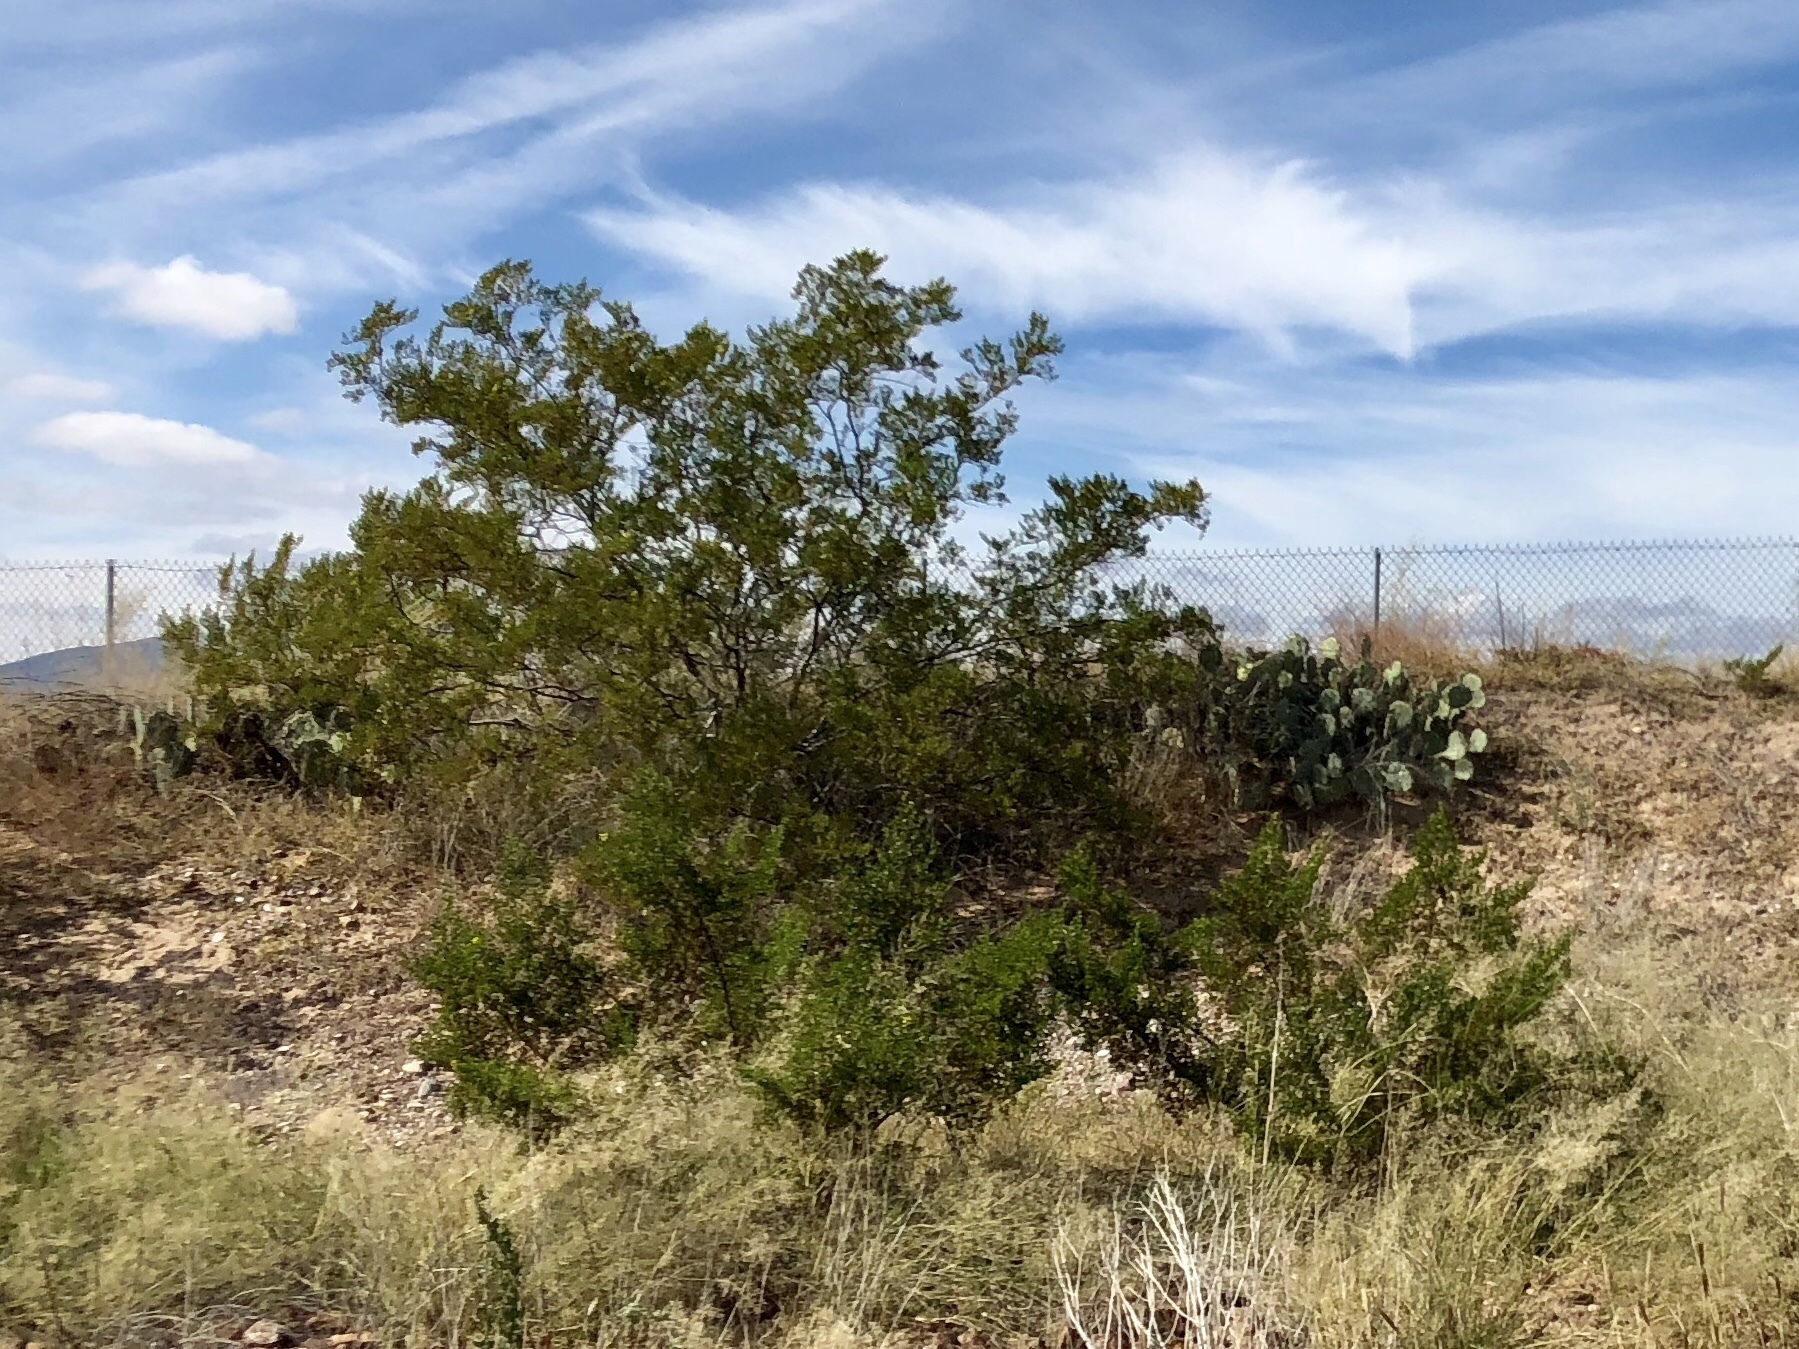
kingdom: Plantae
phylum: Tracheophyta
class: Magnoliopsida
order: Zygophyllales
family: Zygophyllaceae
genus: Larrea
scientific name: Larrea tridentata
